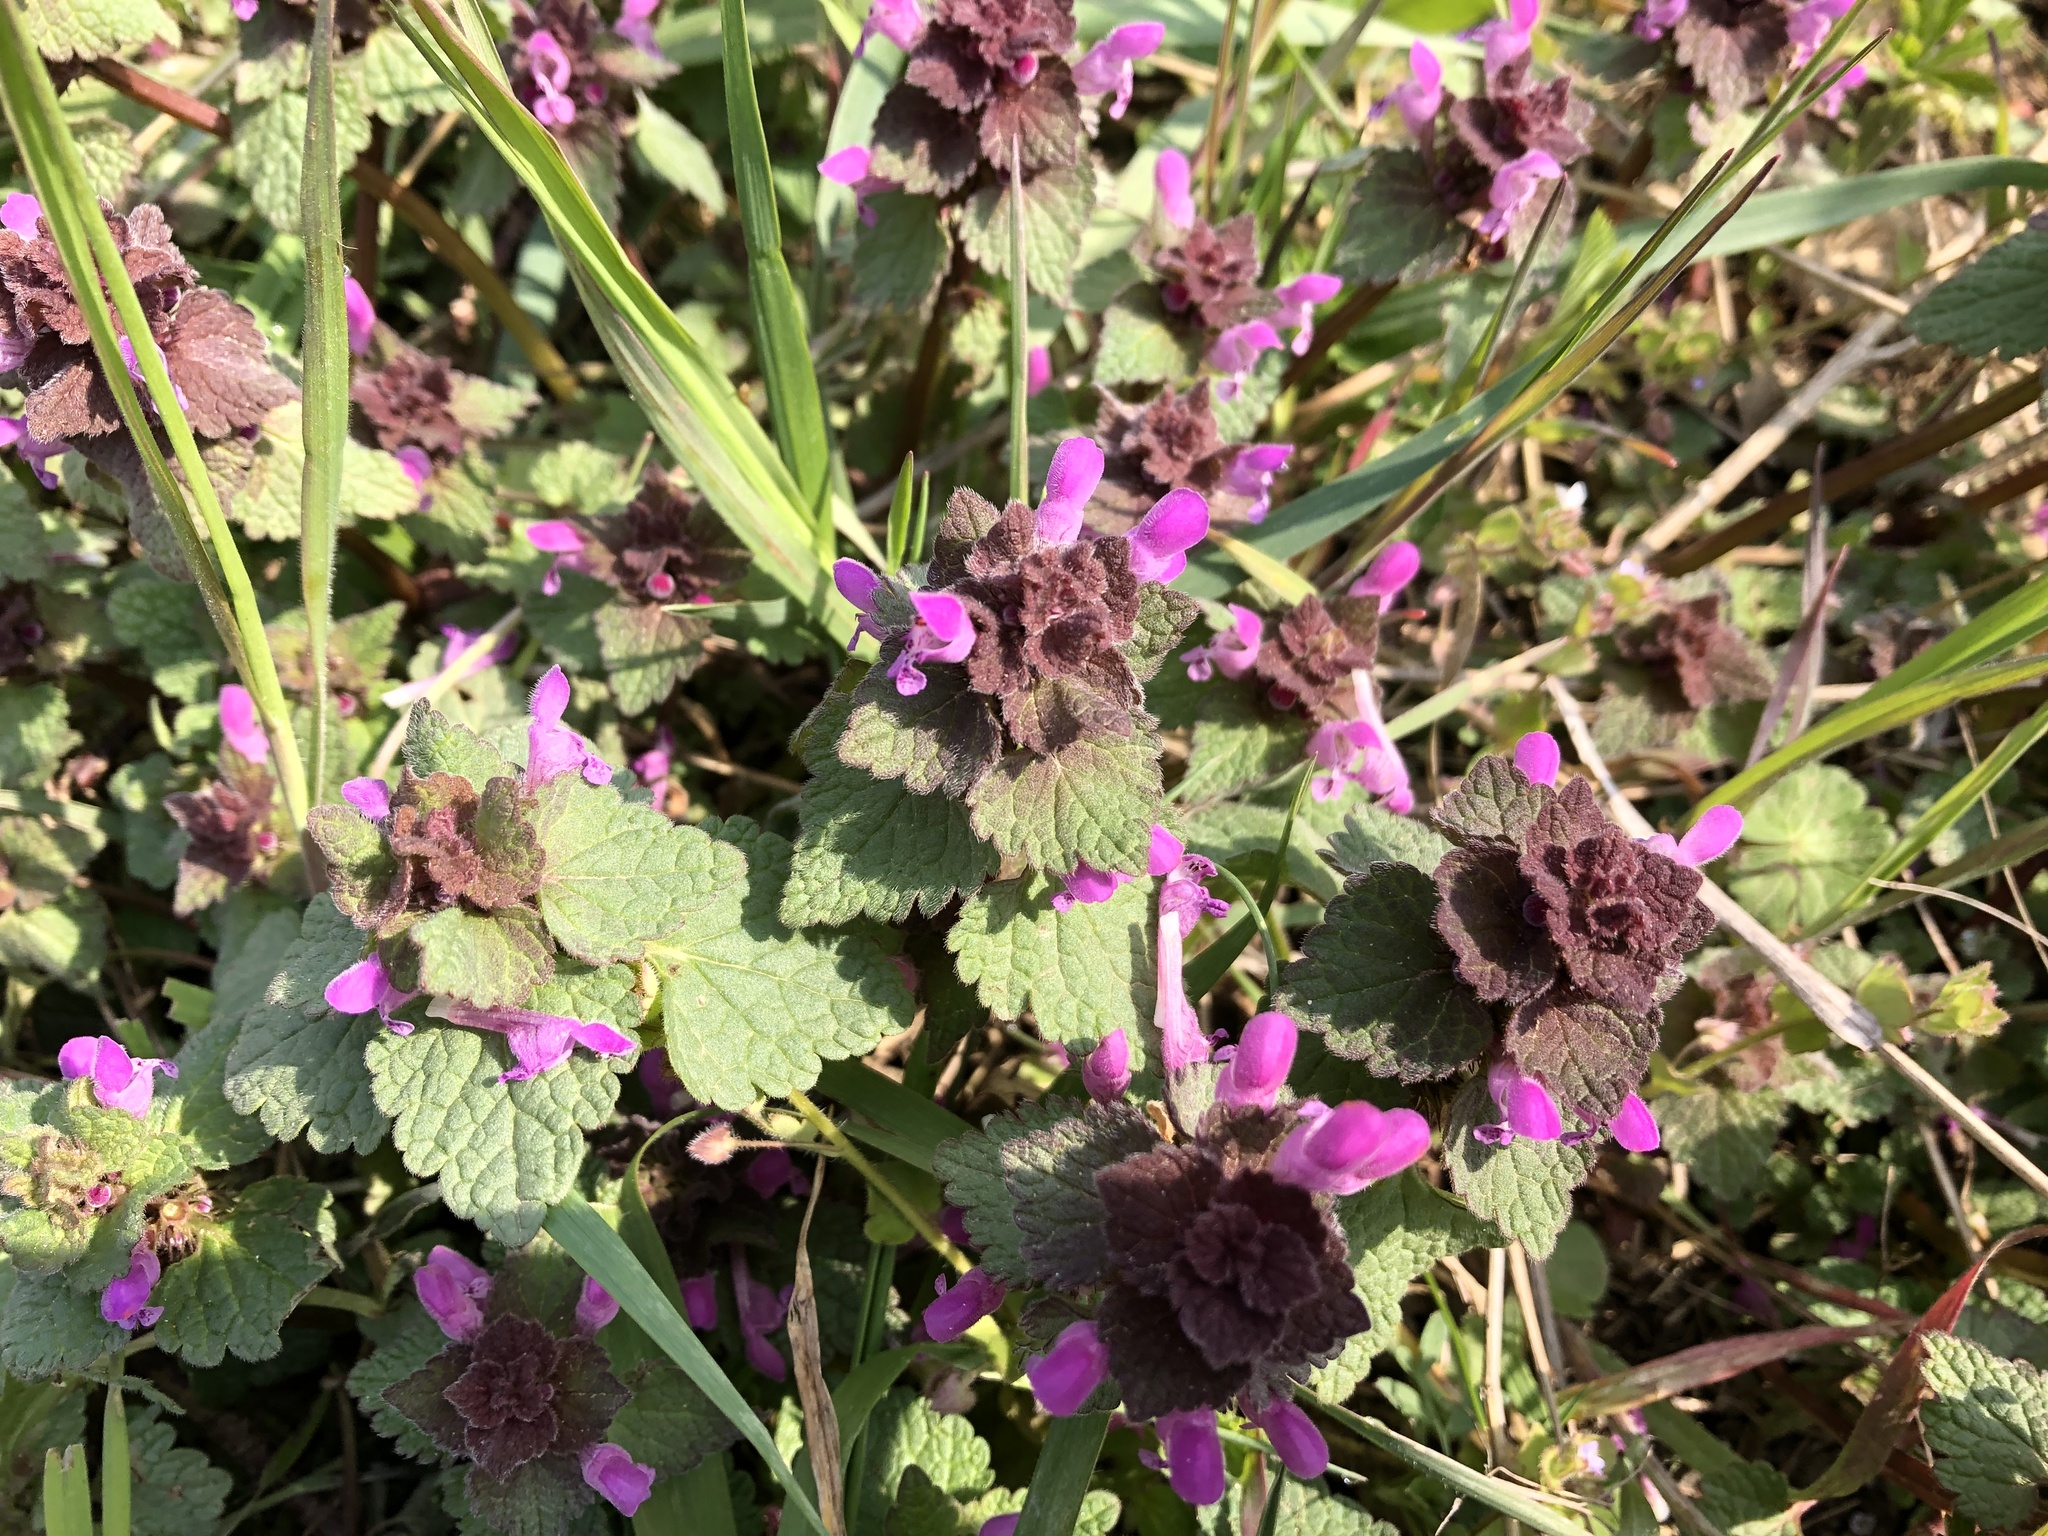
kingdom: Plantae
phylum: Tracheophyta
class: Magnoliopsida
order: Lamiales
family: Lamiaceae
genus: Lamium
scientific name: Lamium purpureum
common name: Red dead-nettle
